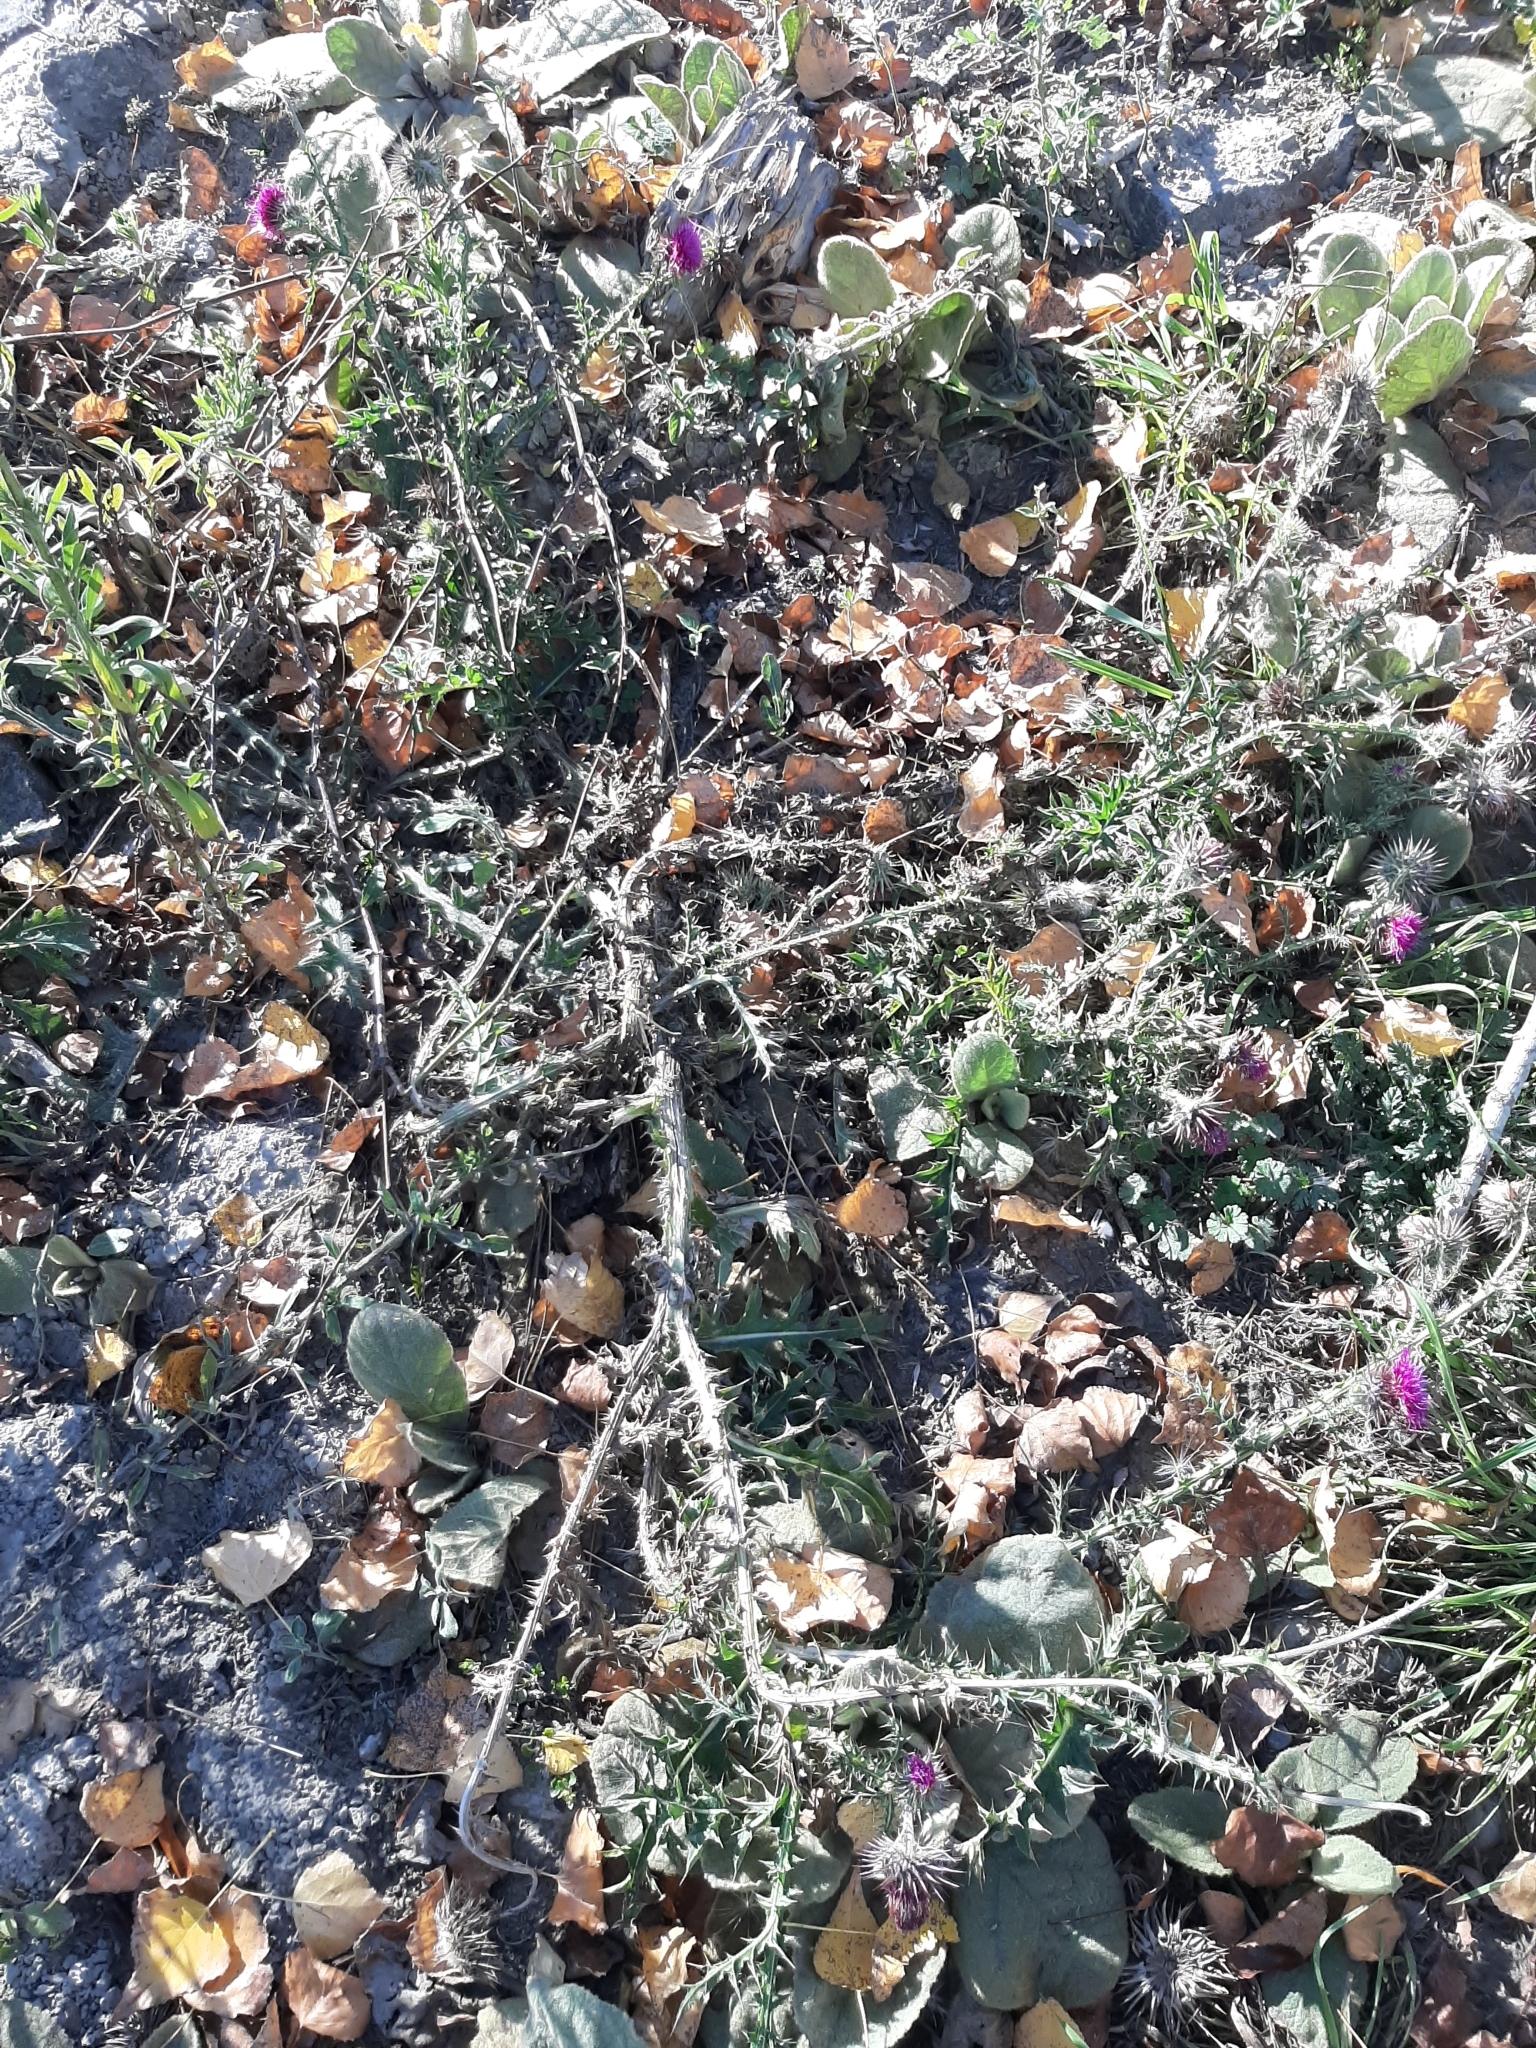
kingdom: Plantae
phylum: Tracheophyta
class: Magnoliopsida
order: Asterales
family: Asteraceae
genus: Carduus
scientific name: Carduus nutans
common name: Musk thistle
